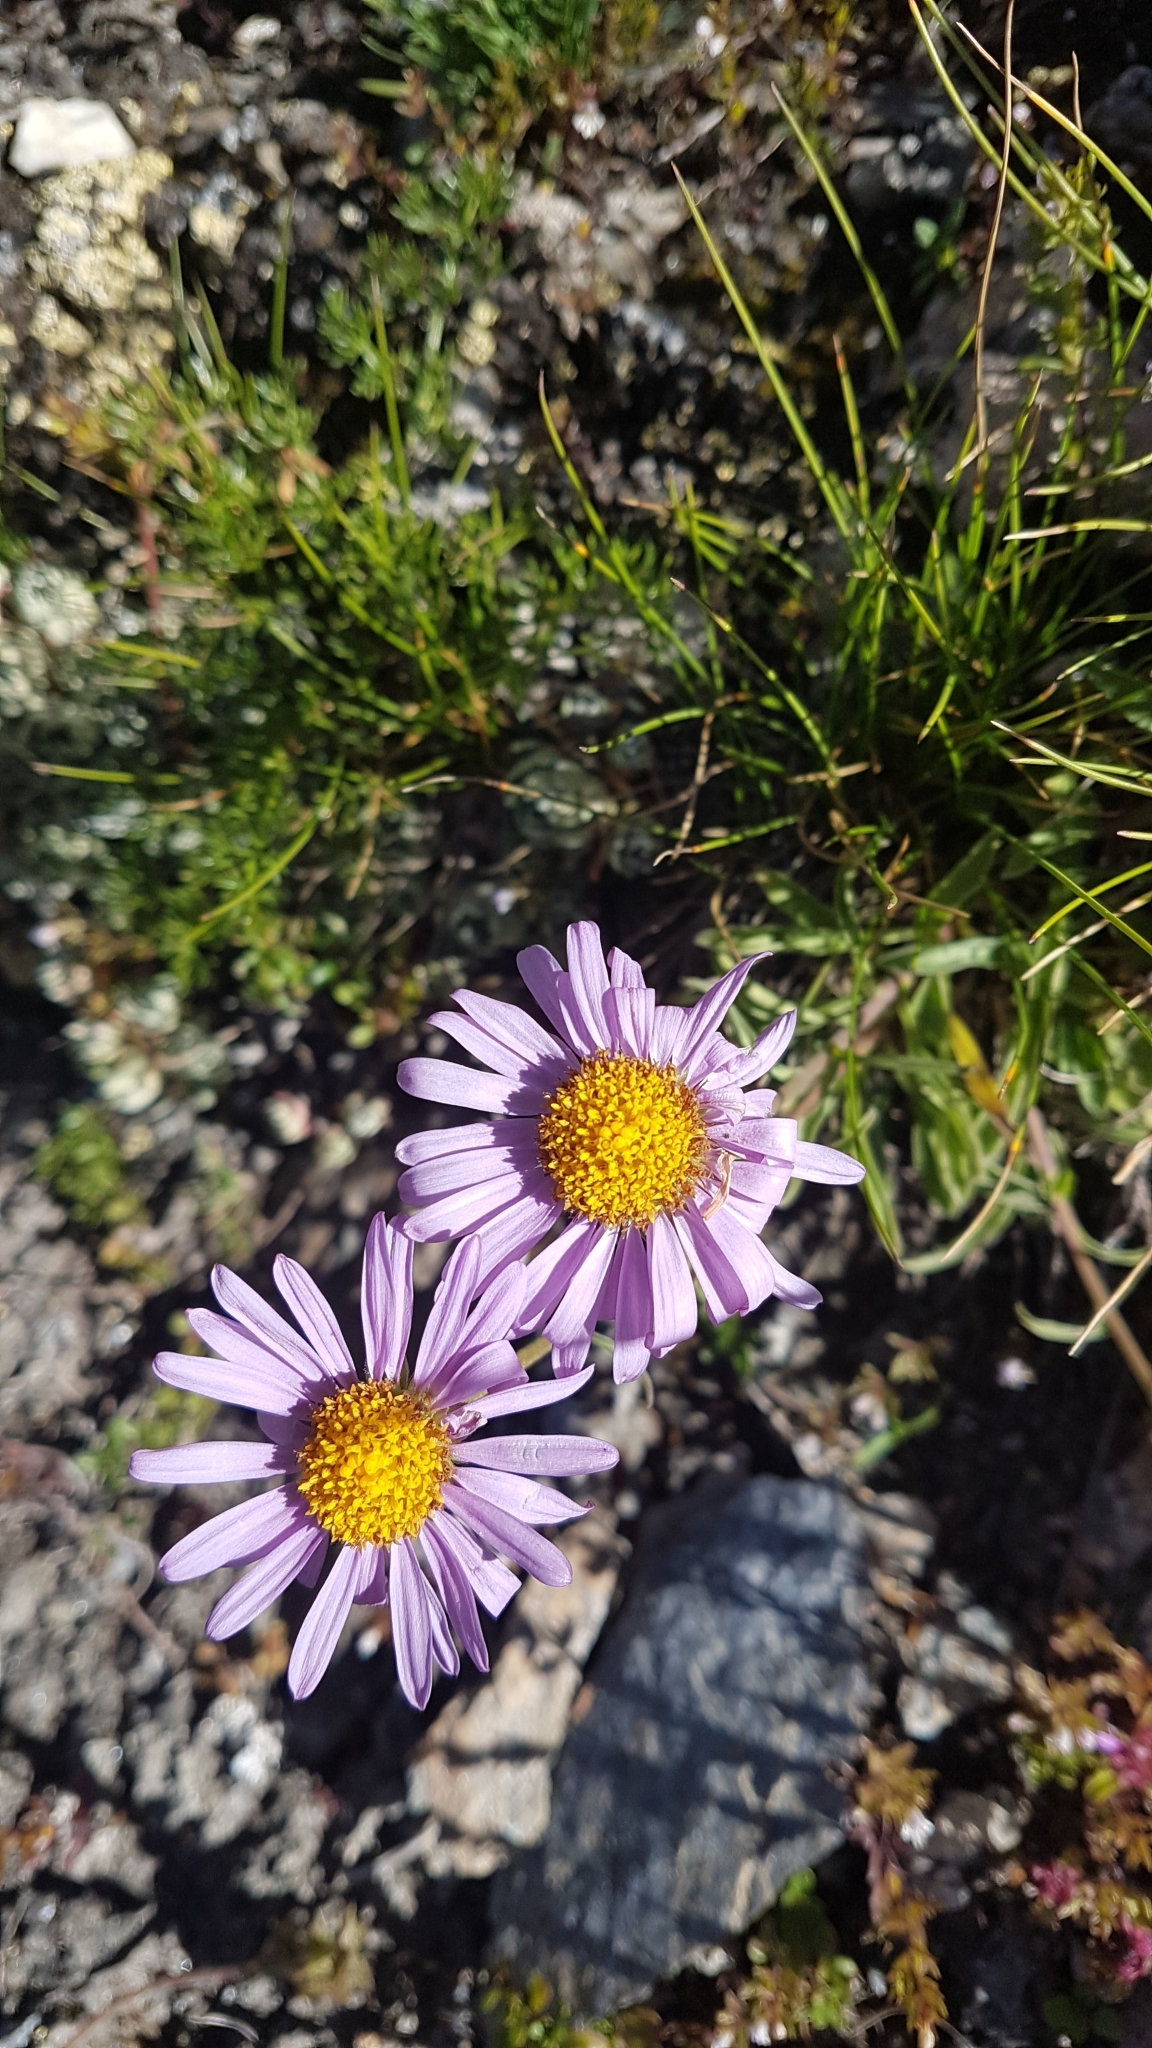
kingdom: Plantae
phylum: Tracheophyta
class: Magnoliopsida
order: Asterales
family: Asteraceae
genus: Aster
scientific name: Aster alpinus
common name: Alpine aster
